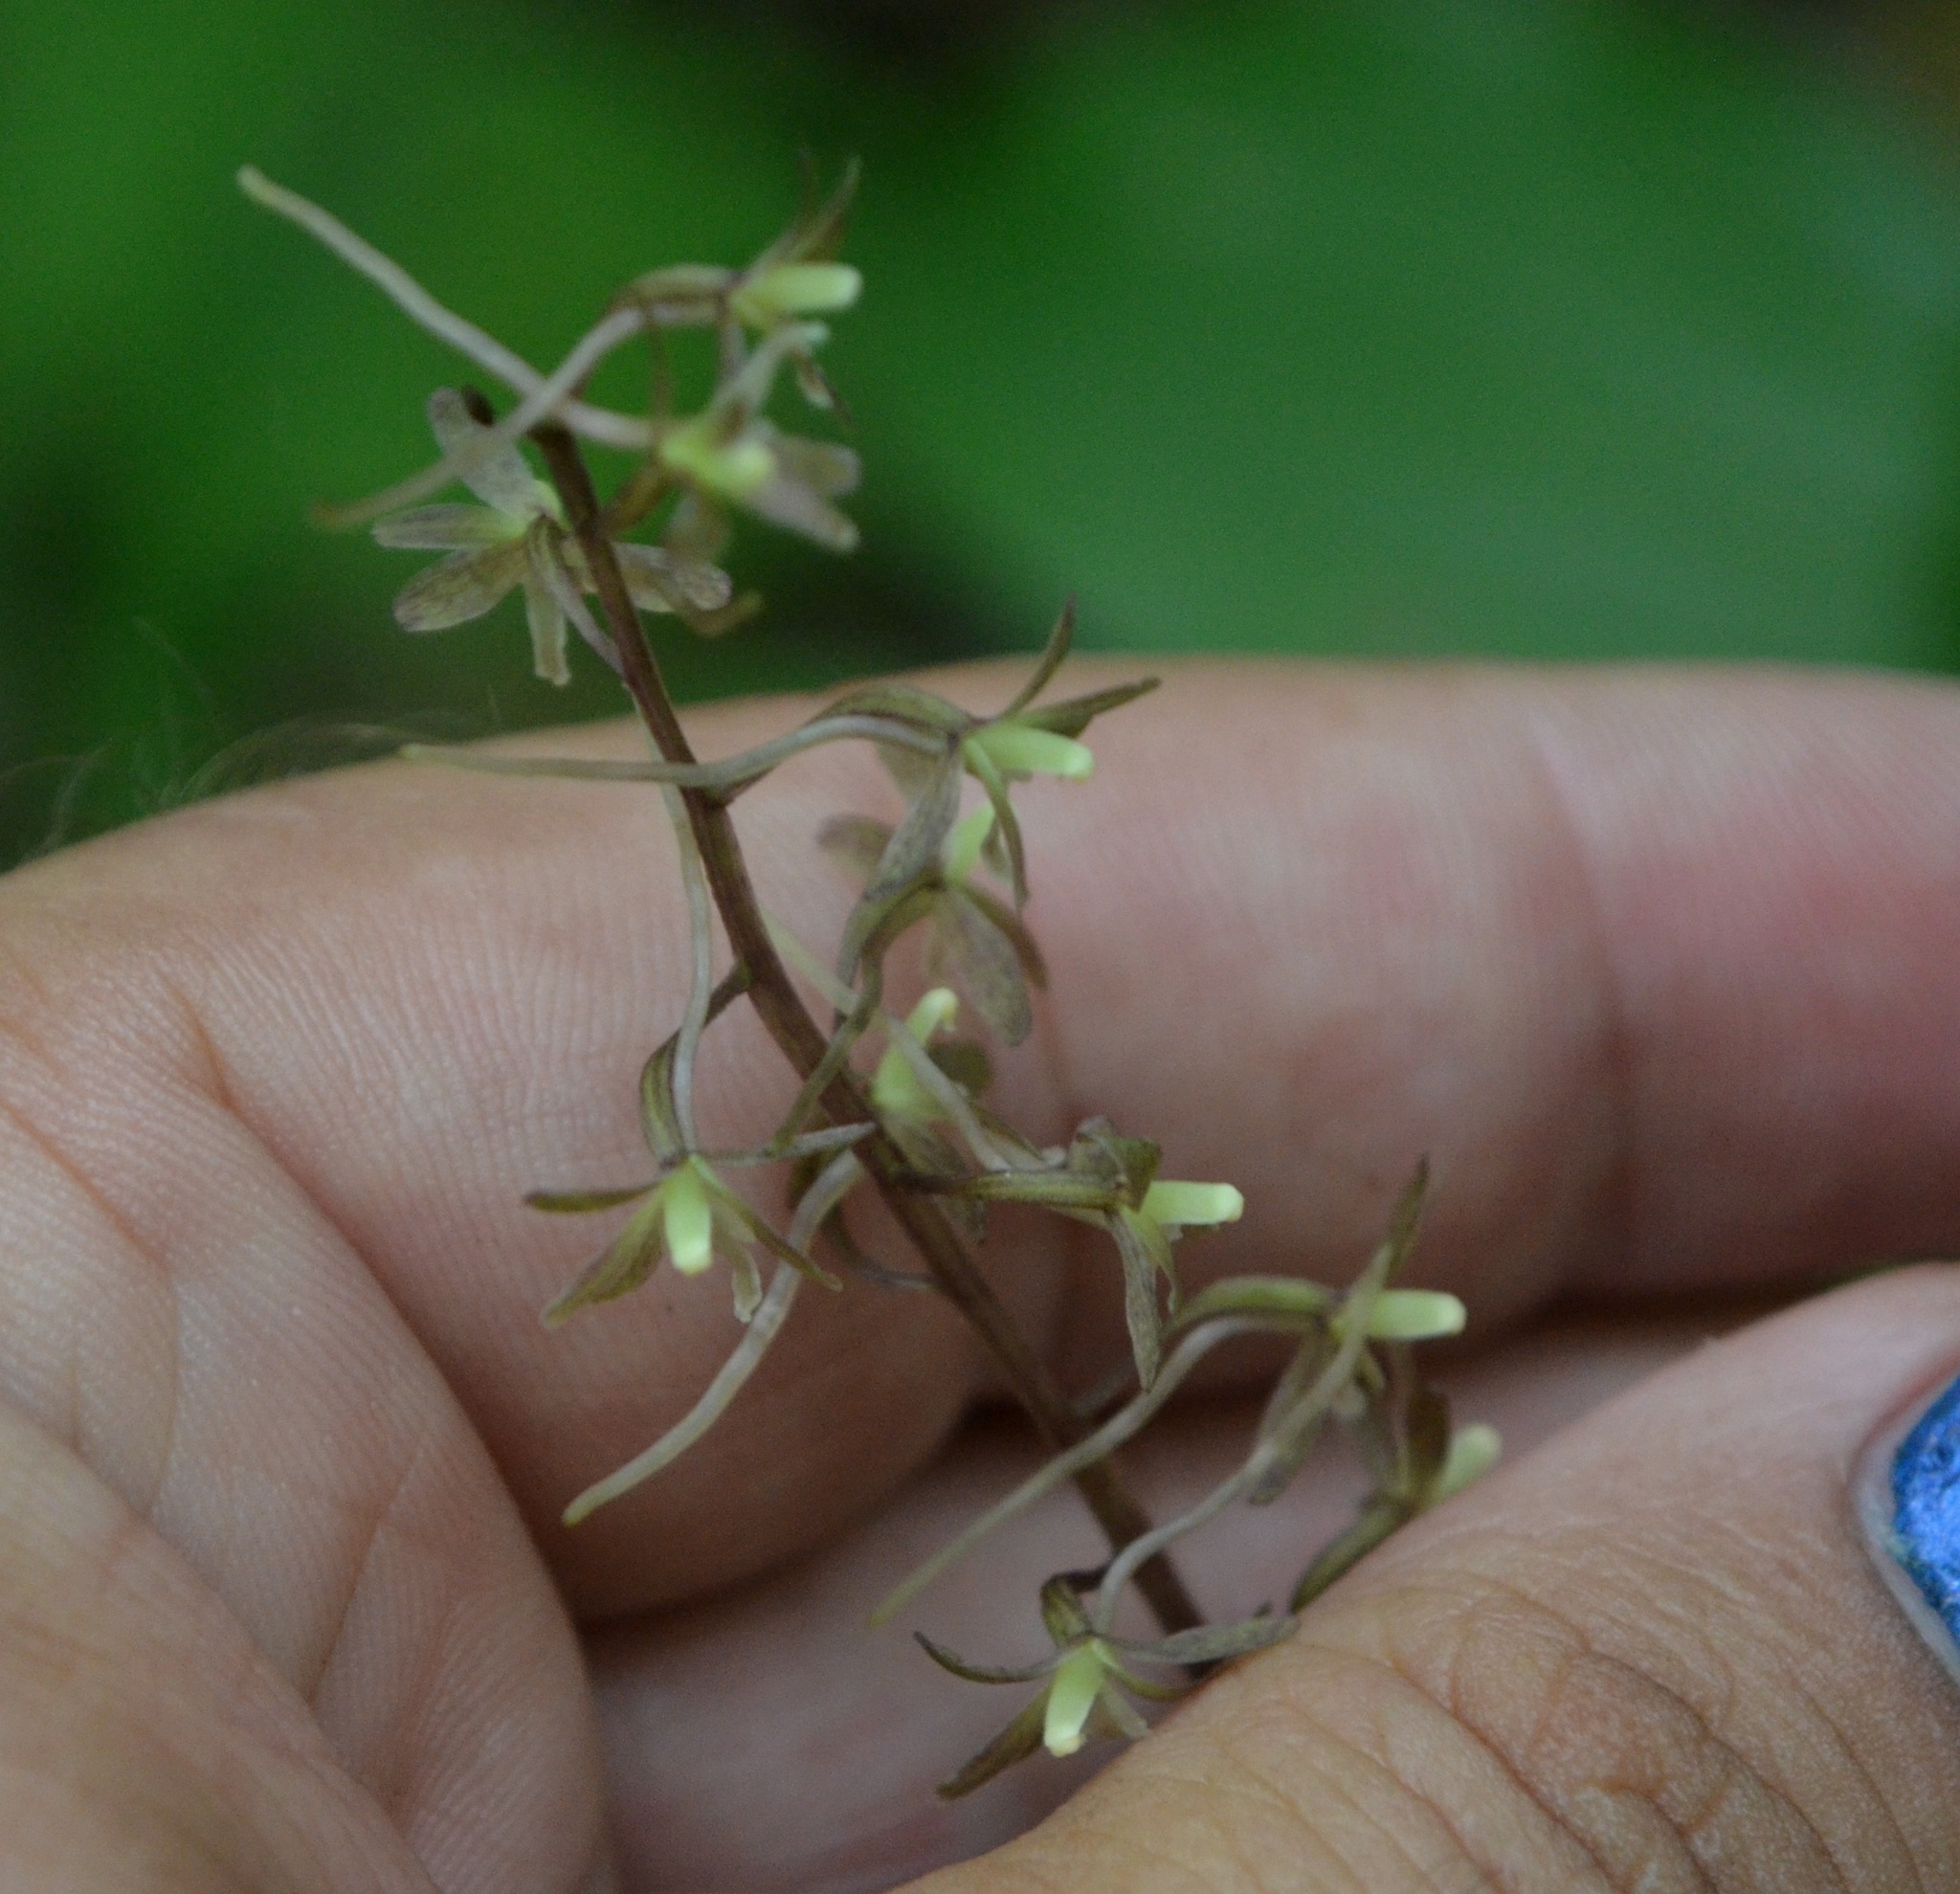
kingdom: Plantae
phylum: Tracheophyta
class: Liliopsida
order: Asparagales
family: Orchidaceae
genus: Tipularia
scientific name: Tipularia discolor
